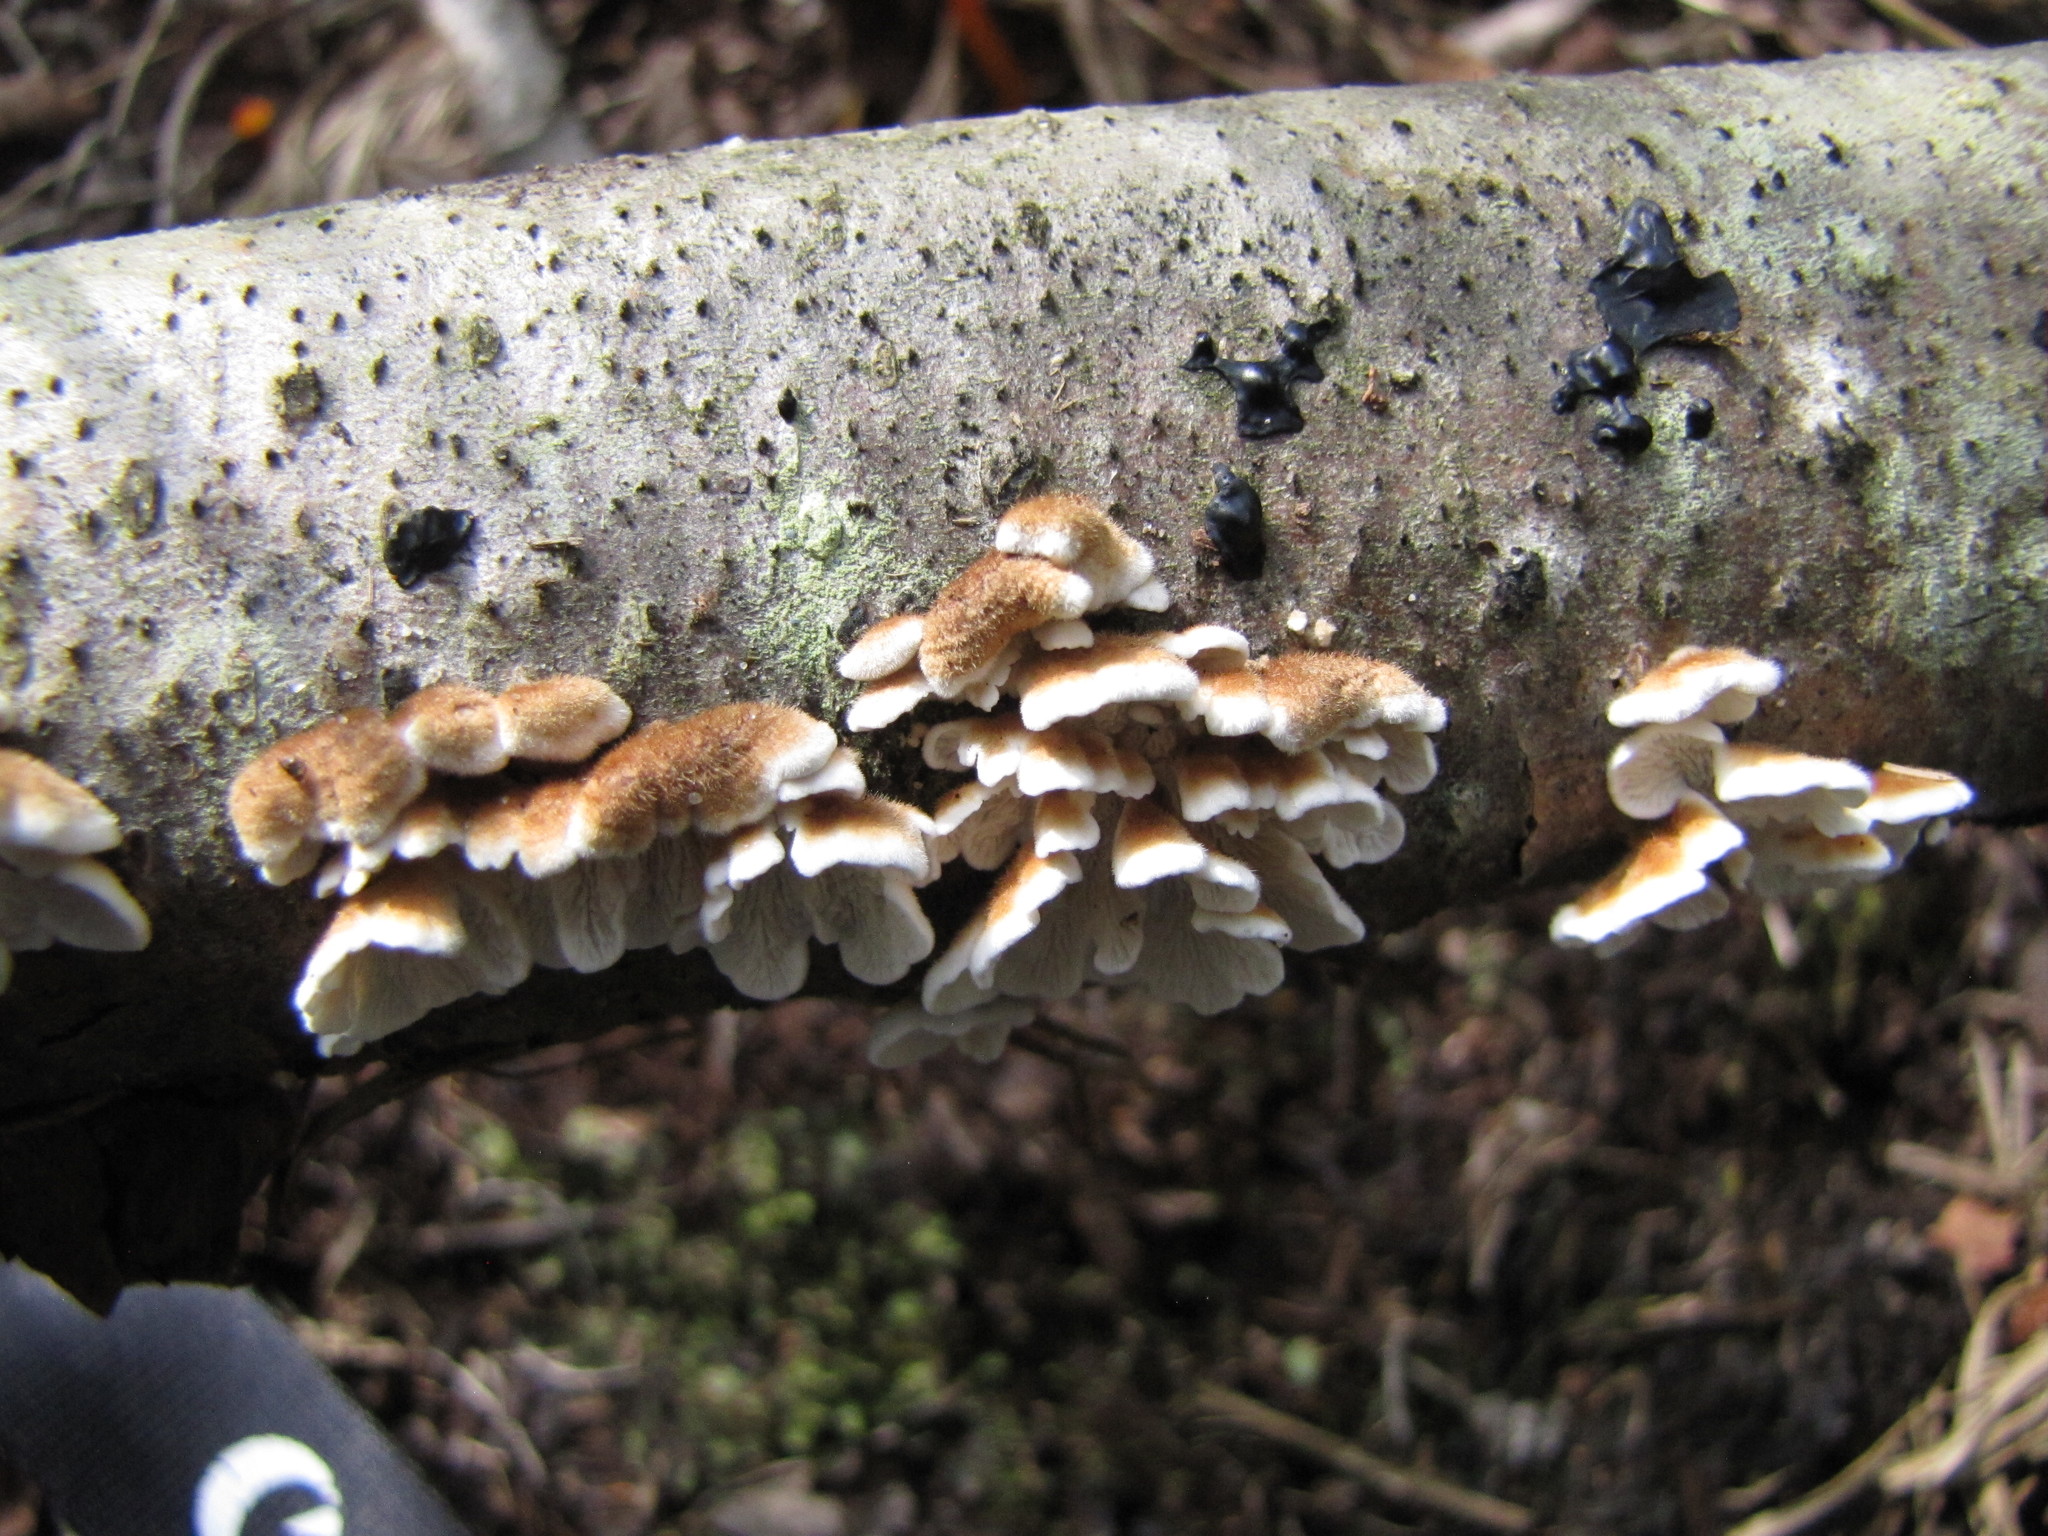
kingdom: Fungi
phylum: Basidiomycota
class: Agaricomycetes
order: Amylocorticiales
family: Amylocorticiaceae
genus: Plicaturopsis
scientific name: Plicaturopsis crispa
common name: Crimped gill
